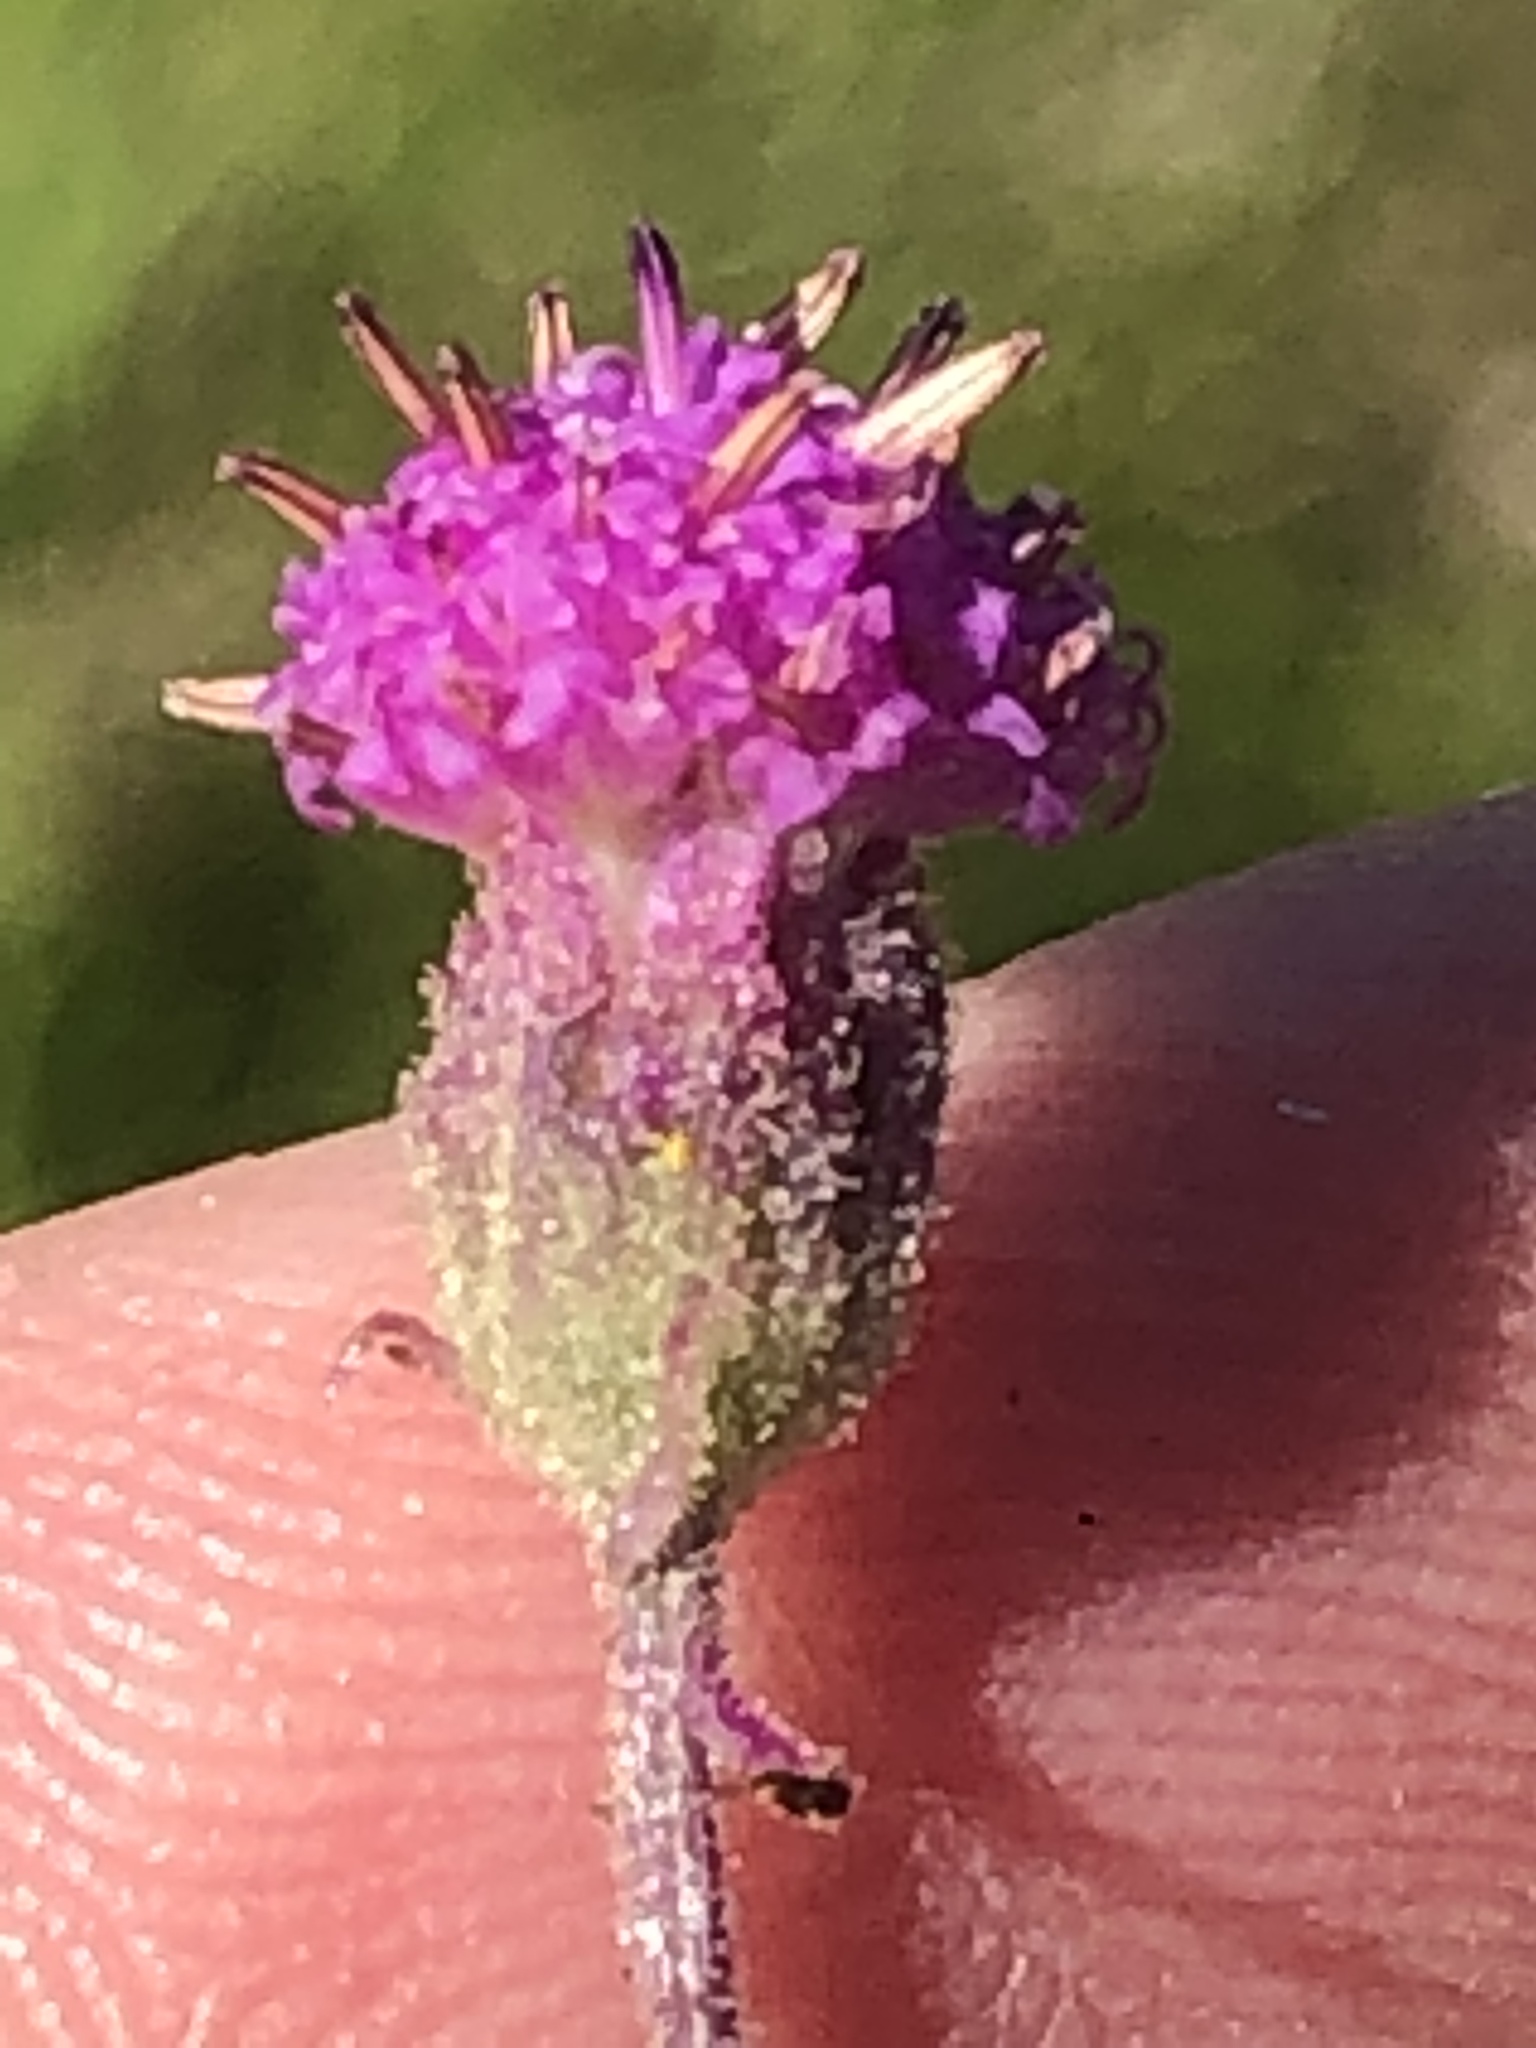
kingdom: Plantae
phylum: Tracheophyta
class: Magnoliopsida
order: Asterales
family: Asteraceae
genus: Senecio
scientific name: Senecio purpureus
